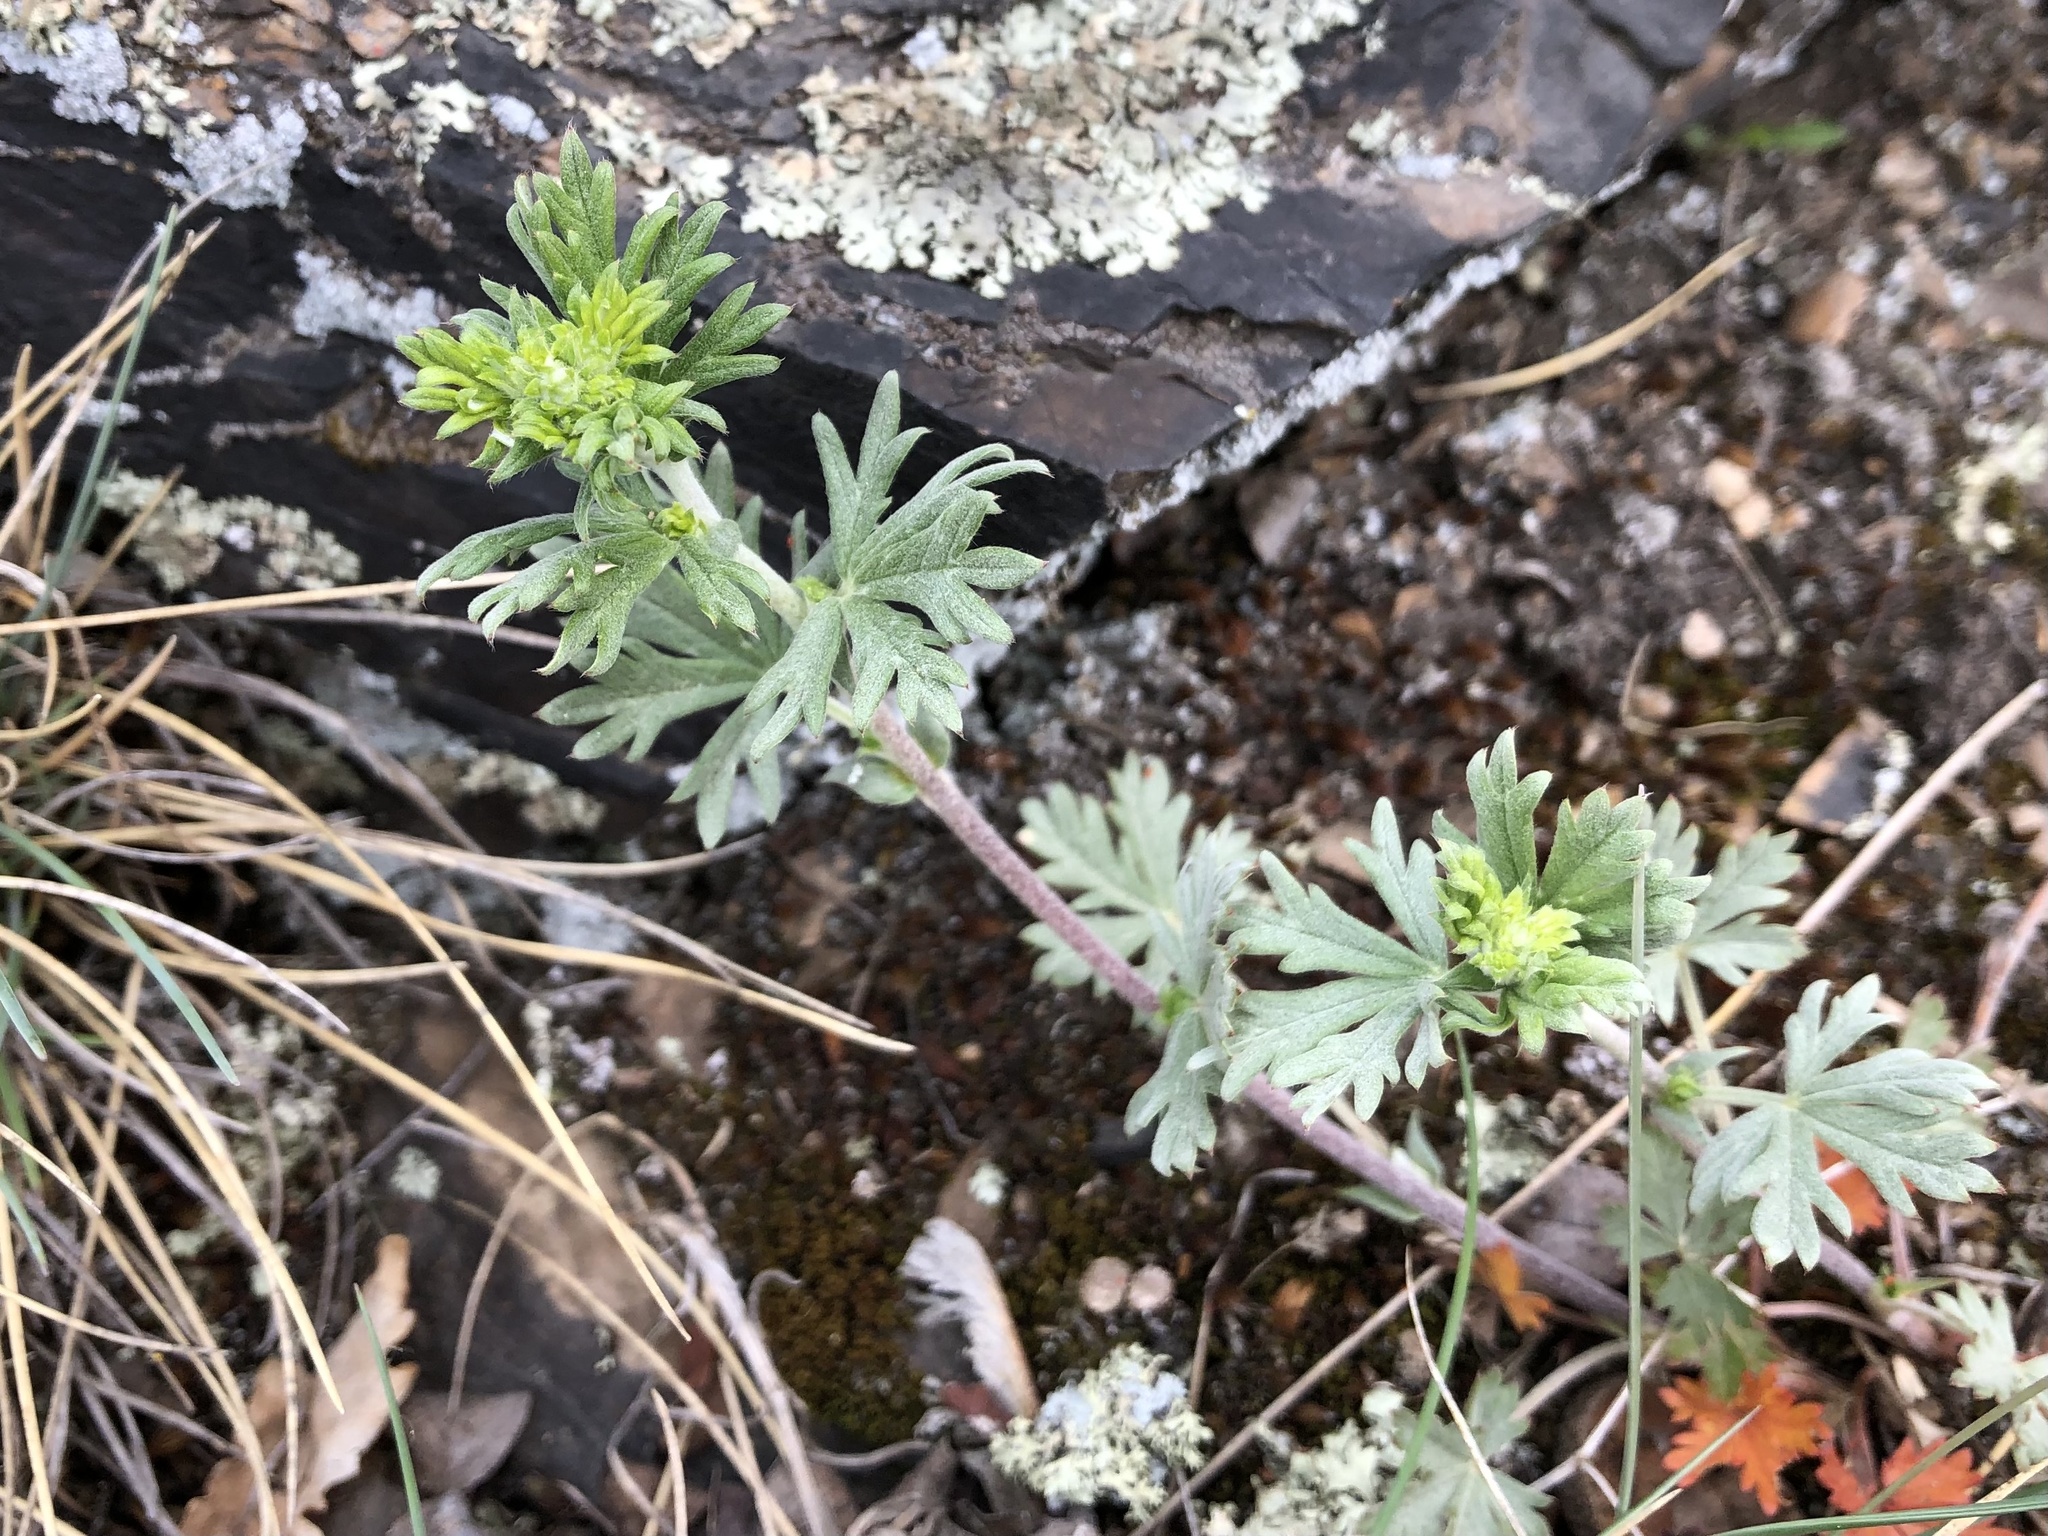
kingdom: Plantae
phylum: Tracheophyta
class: Magnoliopsida
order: Rosales
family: Rosaceae
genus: Potentilla
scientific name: Potentilla argentea
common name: Hoary cinquefoil
